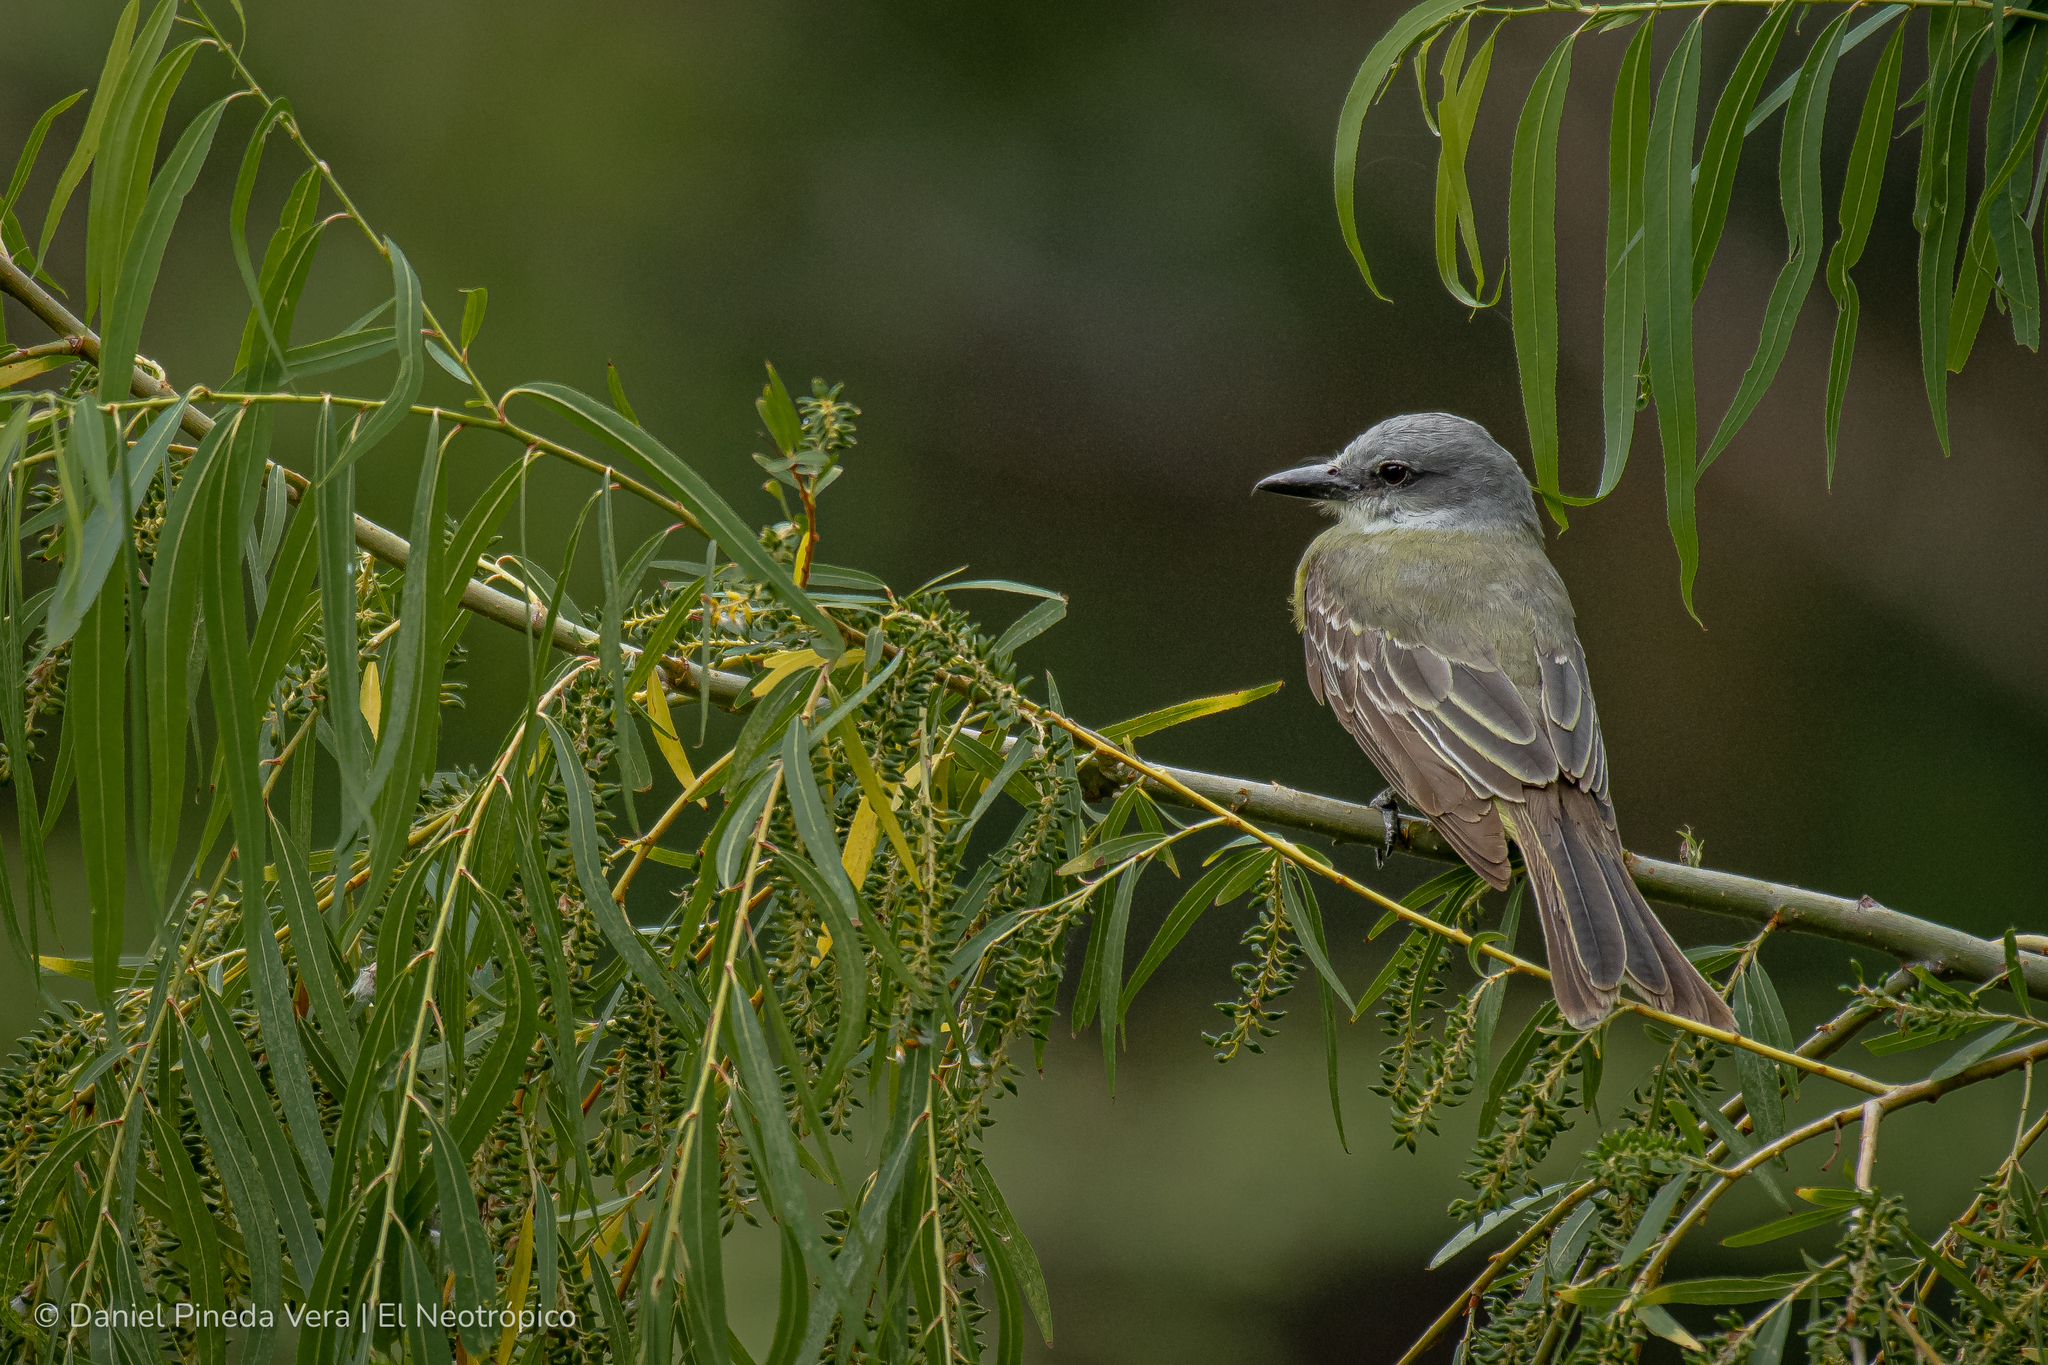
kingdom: Animalia
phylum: Chordata
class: Aves
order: Passeriformes
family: Tyrannidae
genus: Tyrannus
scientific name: Tyrannus melancholicus
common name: Tropical kingbird
